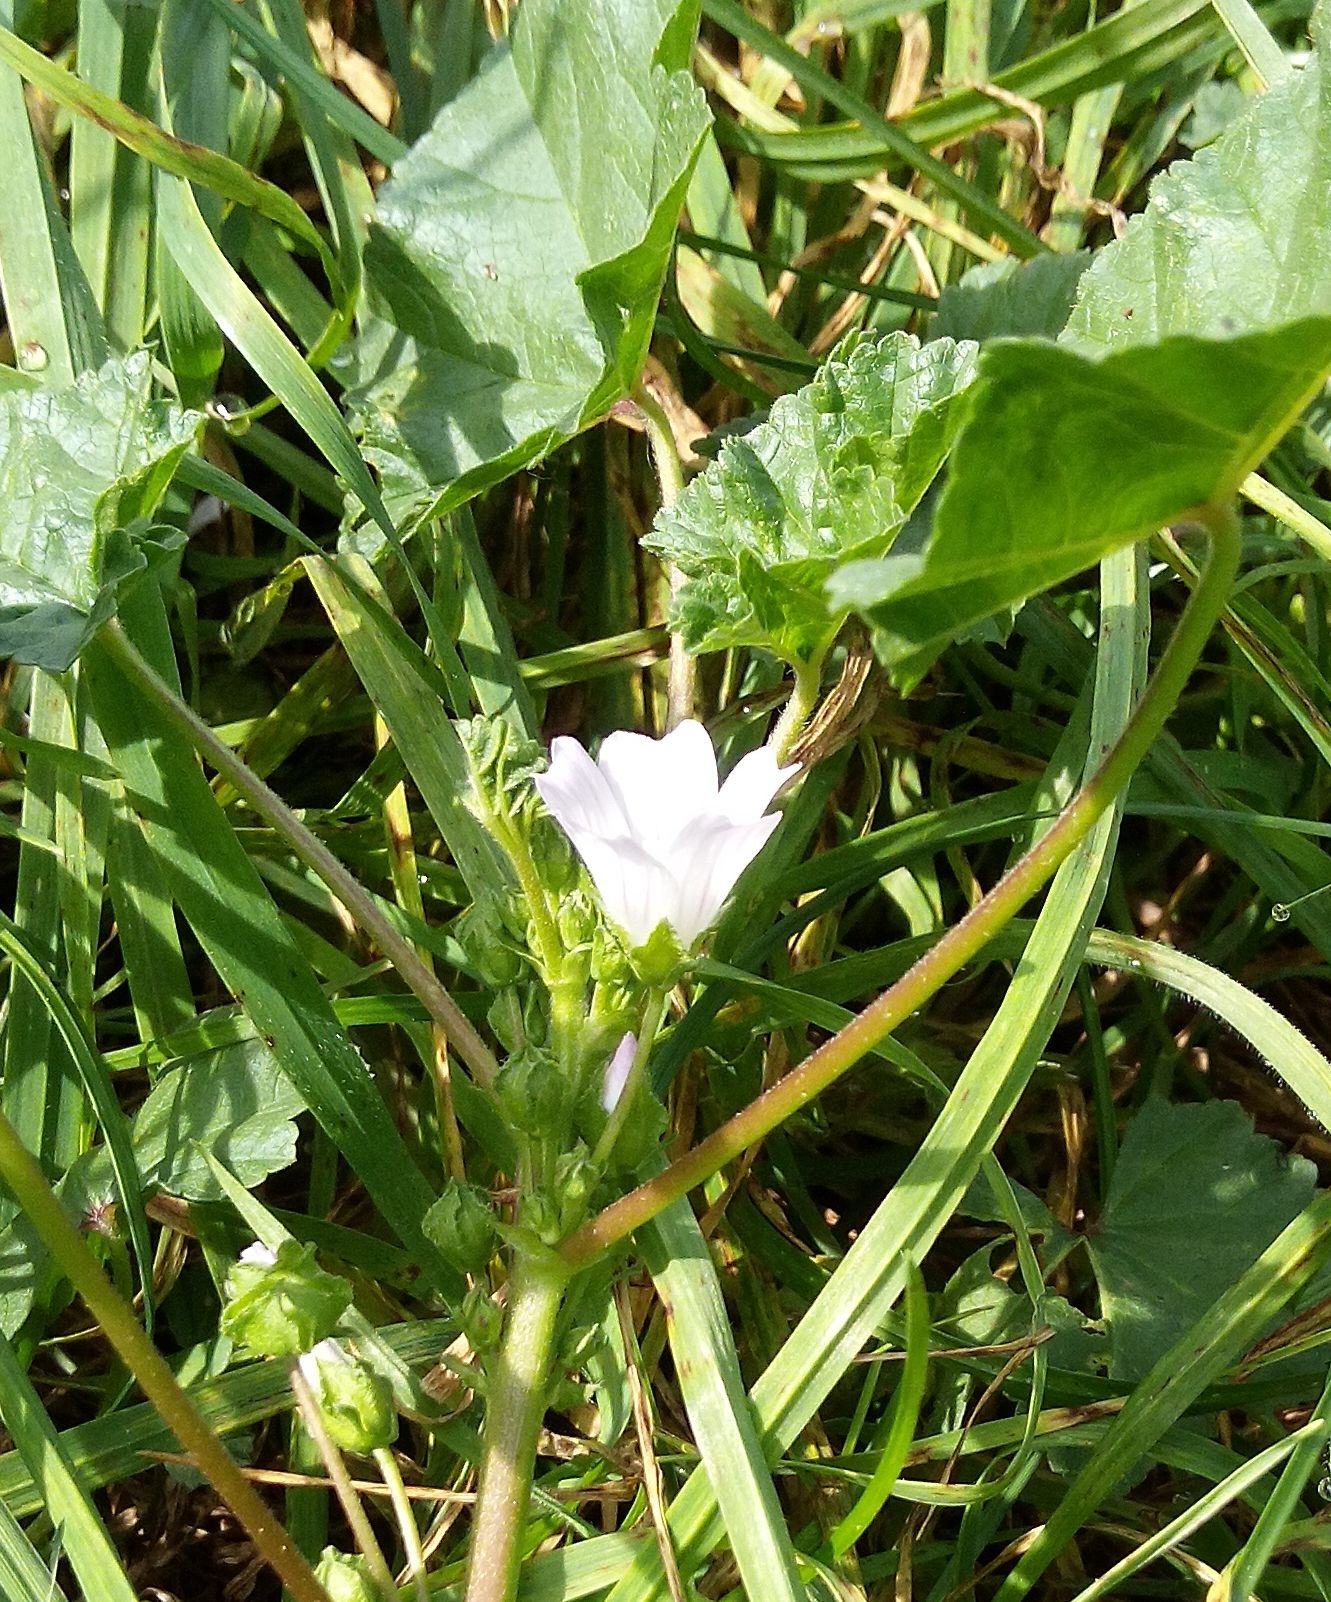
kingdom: Plantae
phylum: Tracheophyta
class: Magnoliopsida
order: Malvales
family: Malvaceae
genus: Malva
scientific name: Malva neglecta
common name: Common mallow
